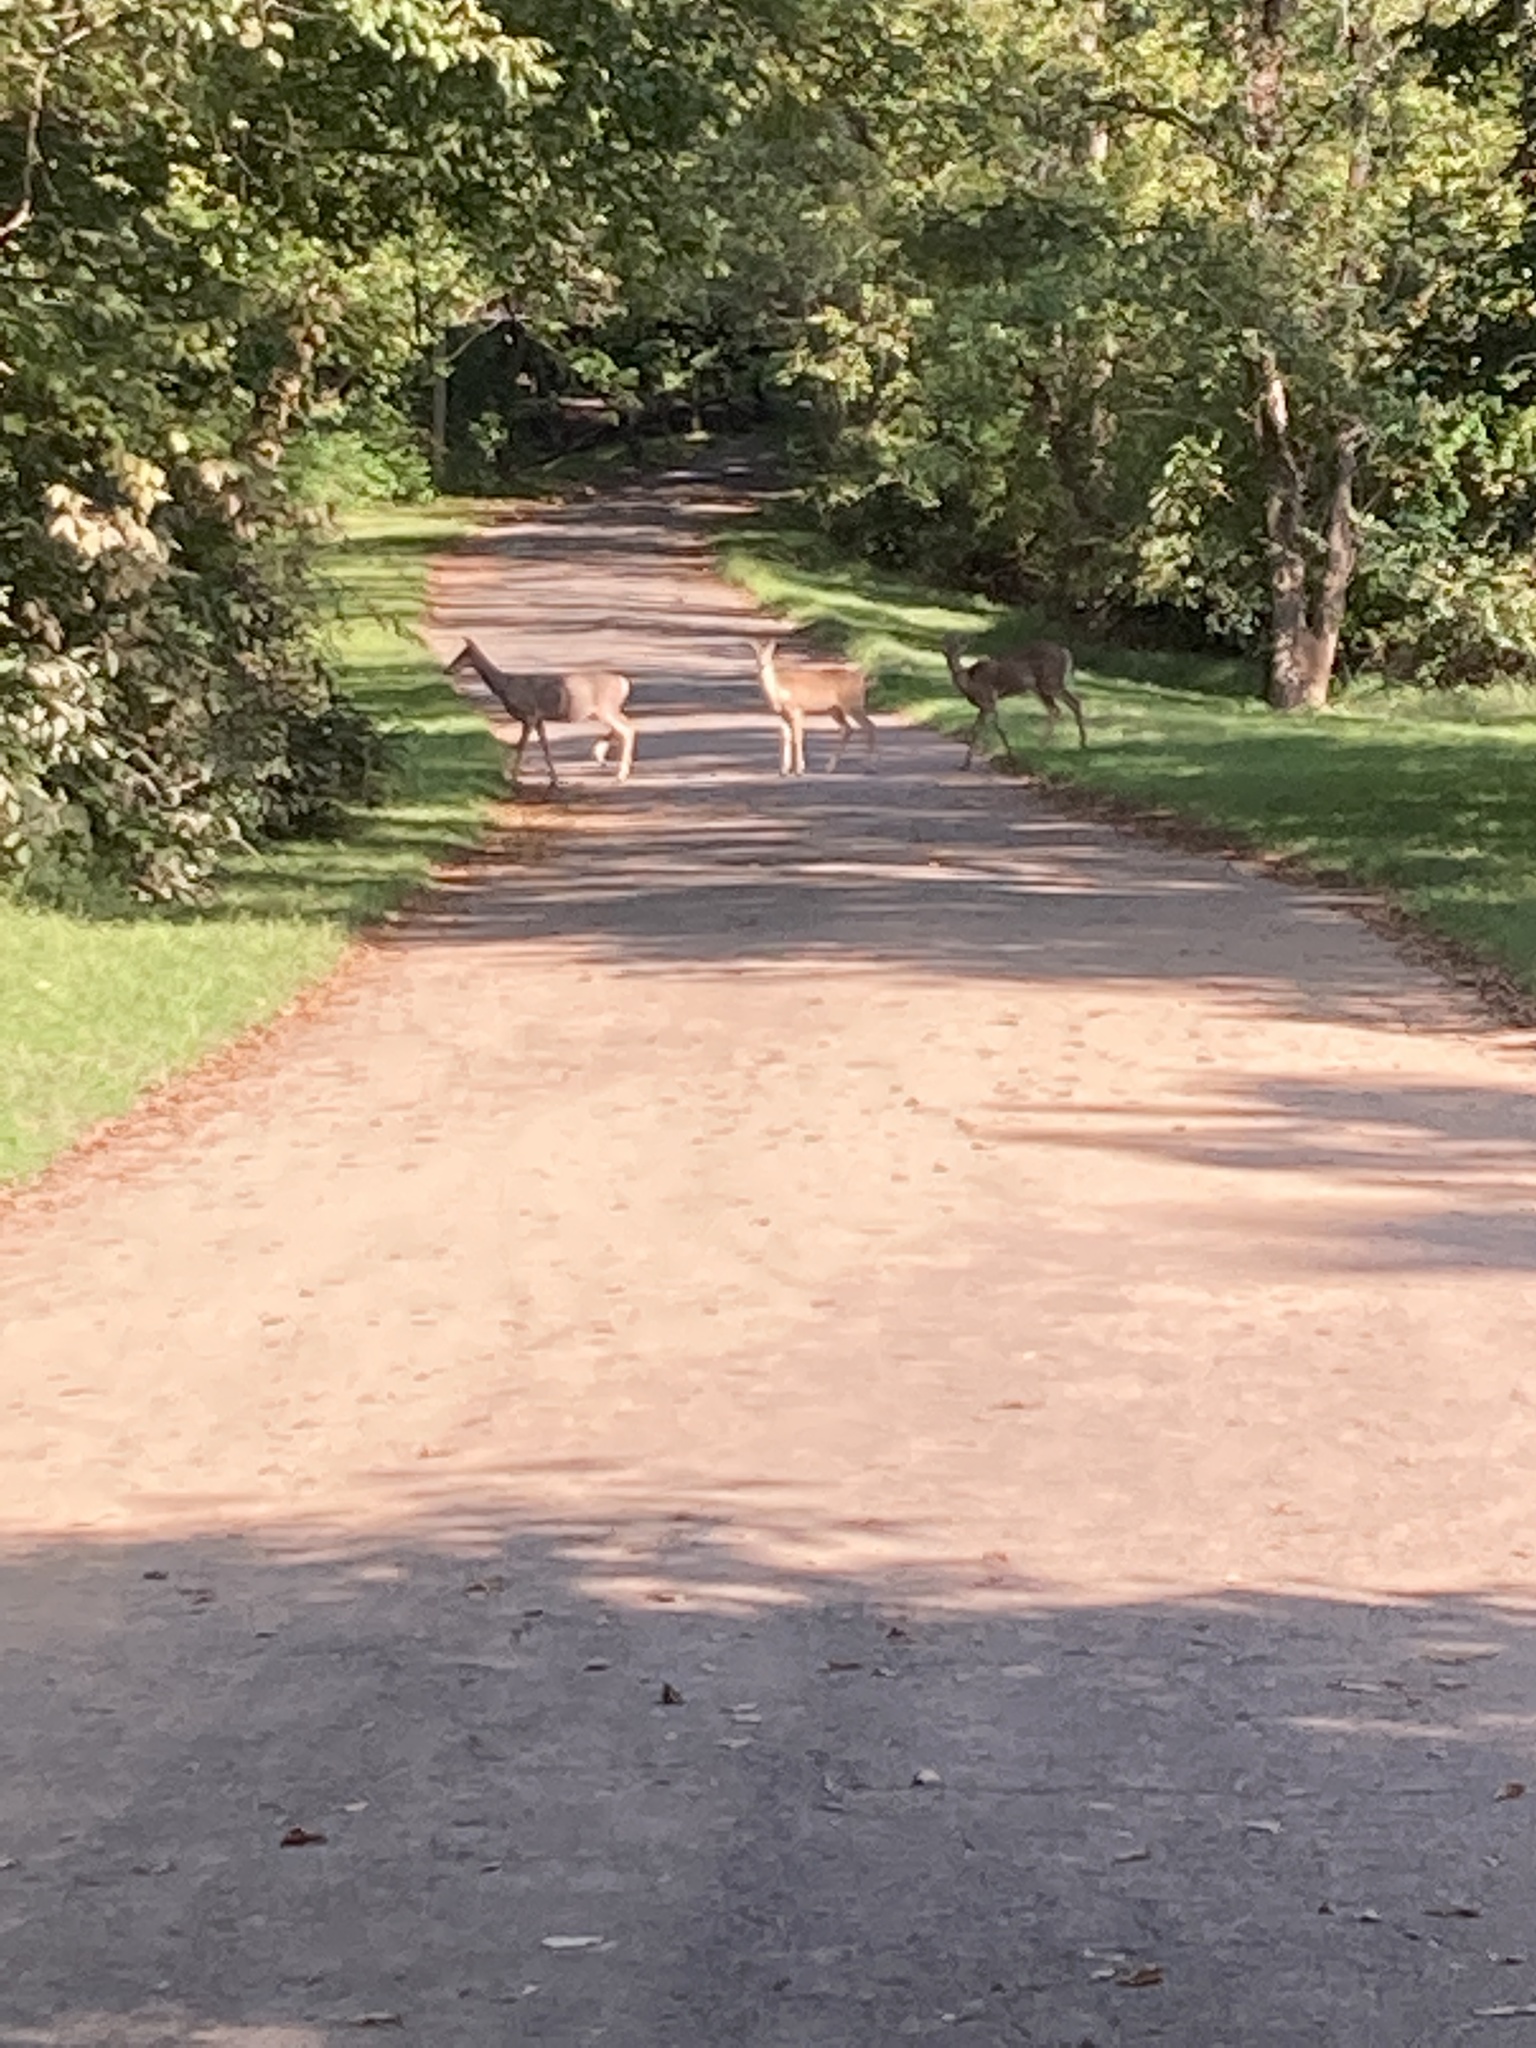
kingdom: Animalia
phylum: Chordata
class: Mammalia
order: Artiodactyla
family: Cervidae
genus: Odocoileus
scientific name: Odocoileus virginianus
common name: White-tailed deer
